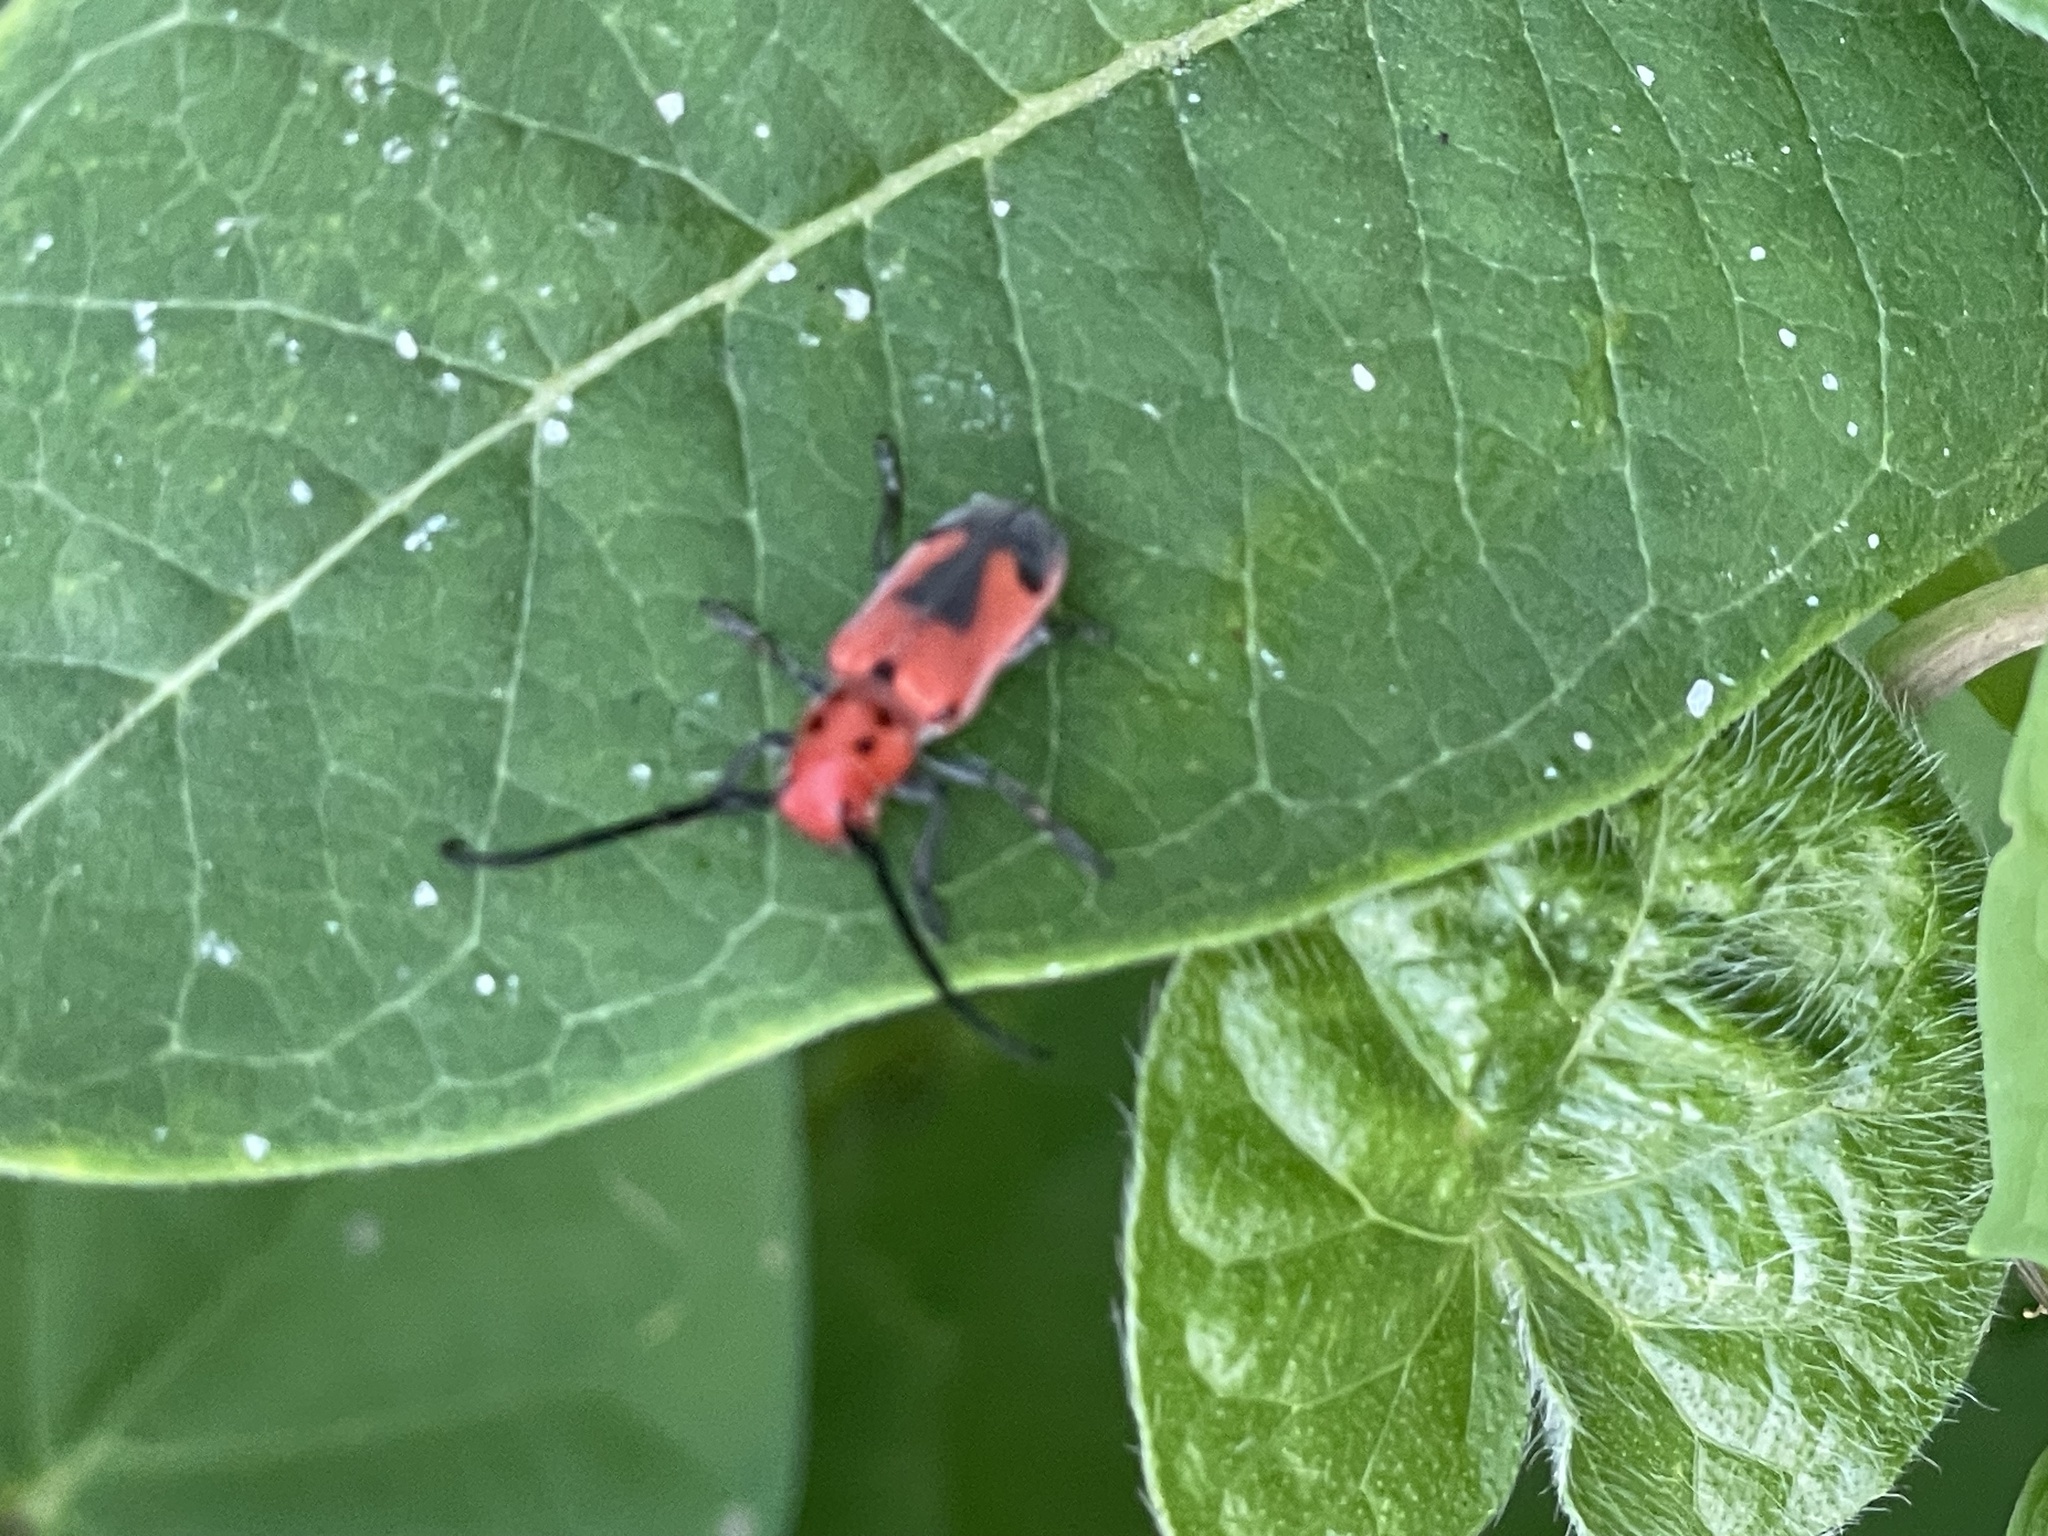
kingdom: Animalia
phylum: Arthropoda
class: Insecta
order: Coleoptera
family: Cerambycidae
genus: Tetraopes
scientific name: Tetraopes melanurus
